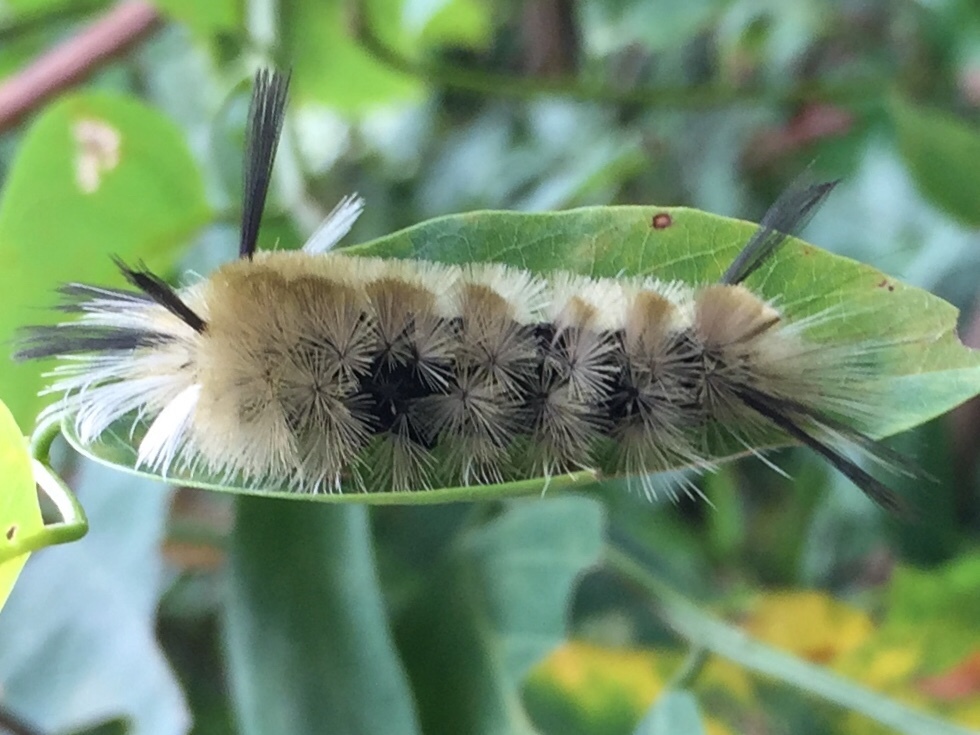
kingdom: Animalia
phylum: Arthropoda
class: Insecta
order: Lepidoptera
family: Erebidae
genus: Halysidota
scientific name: Halysidota tessellaris
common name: Banded tussock moth
